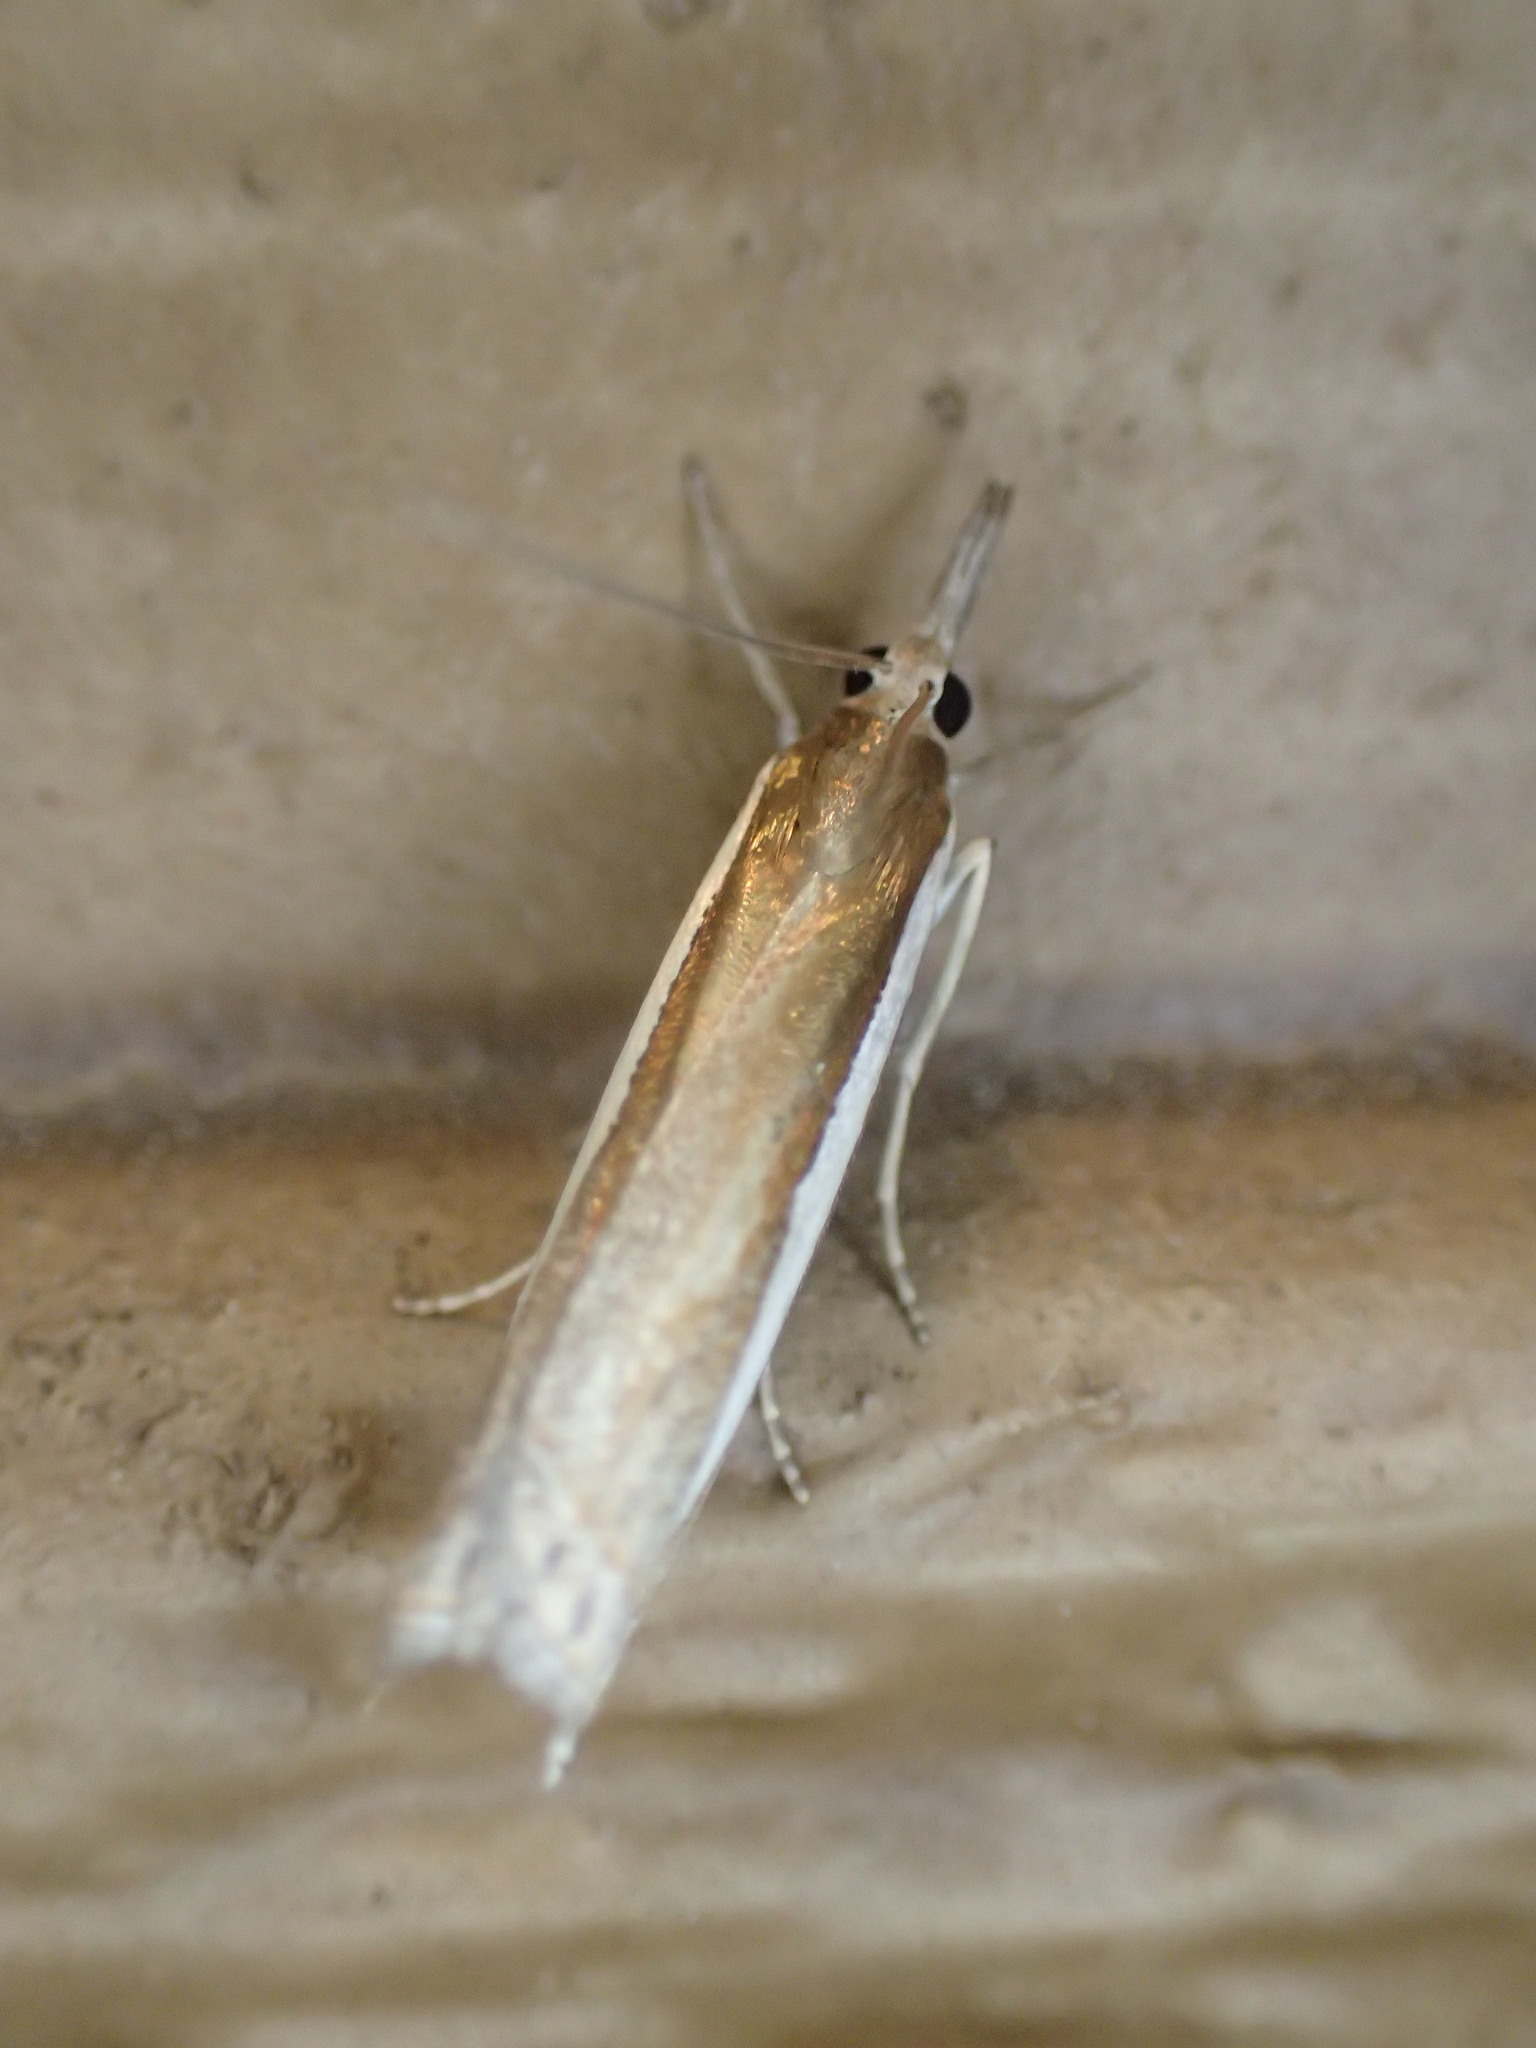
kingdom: Animalia
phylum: Arthropoda
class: Insecta
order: Lepidoptera
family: Crambidae
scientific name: Crambidae
